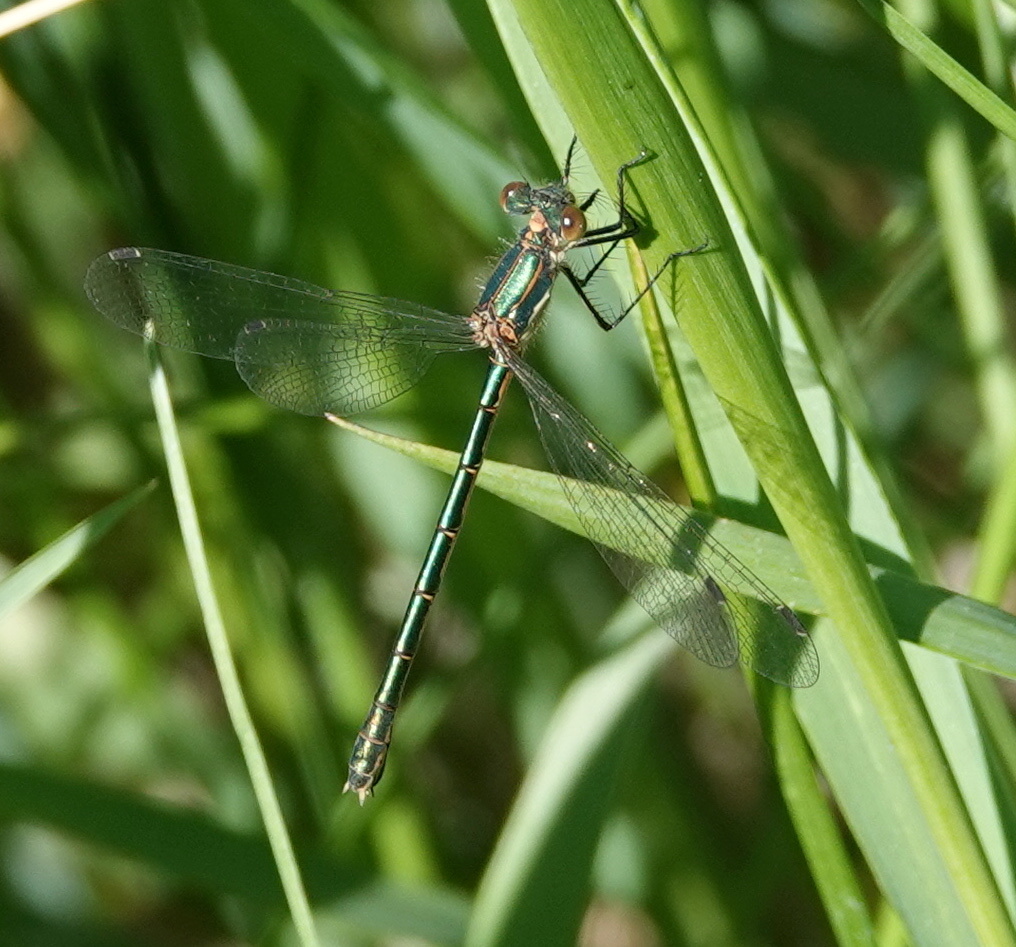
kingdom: Animalia
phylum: Arthropoda
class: Insecta
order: Odonata
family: Lestidae
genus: Lestes
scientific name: Lestes dryas
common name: Scarce emerald damselfly
